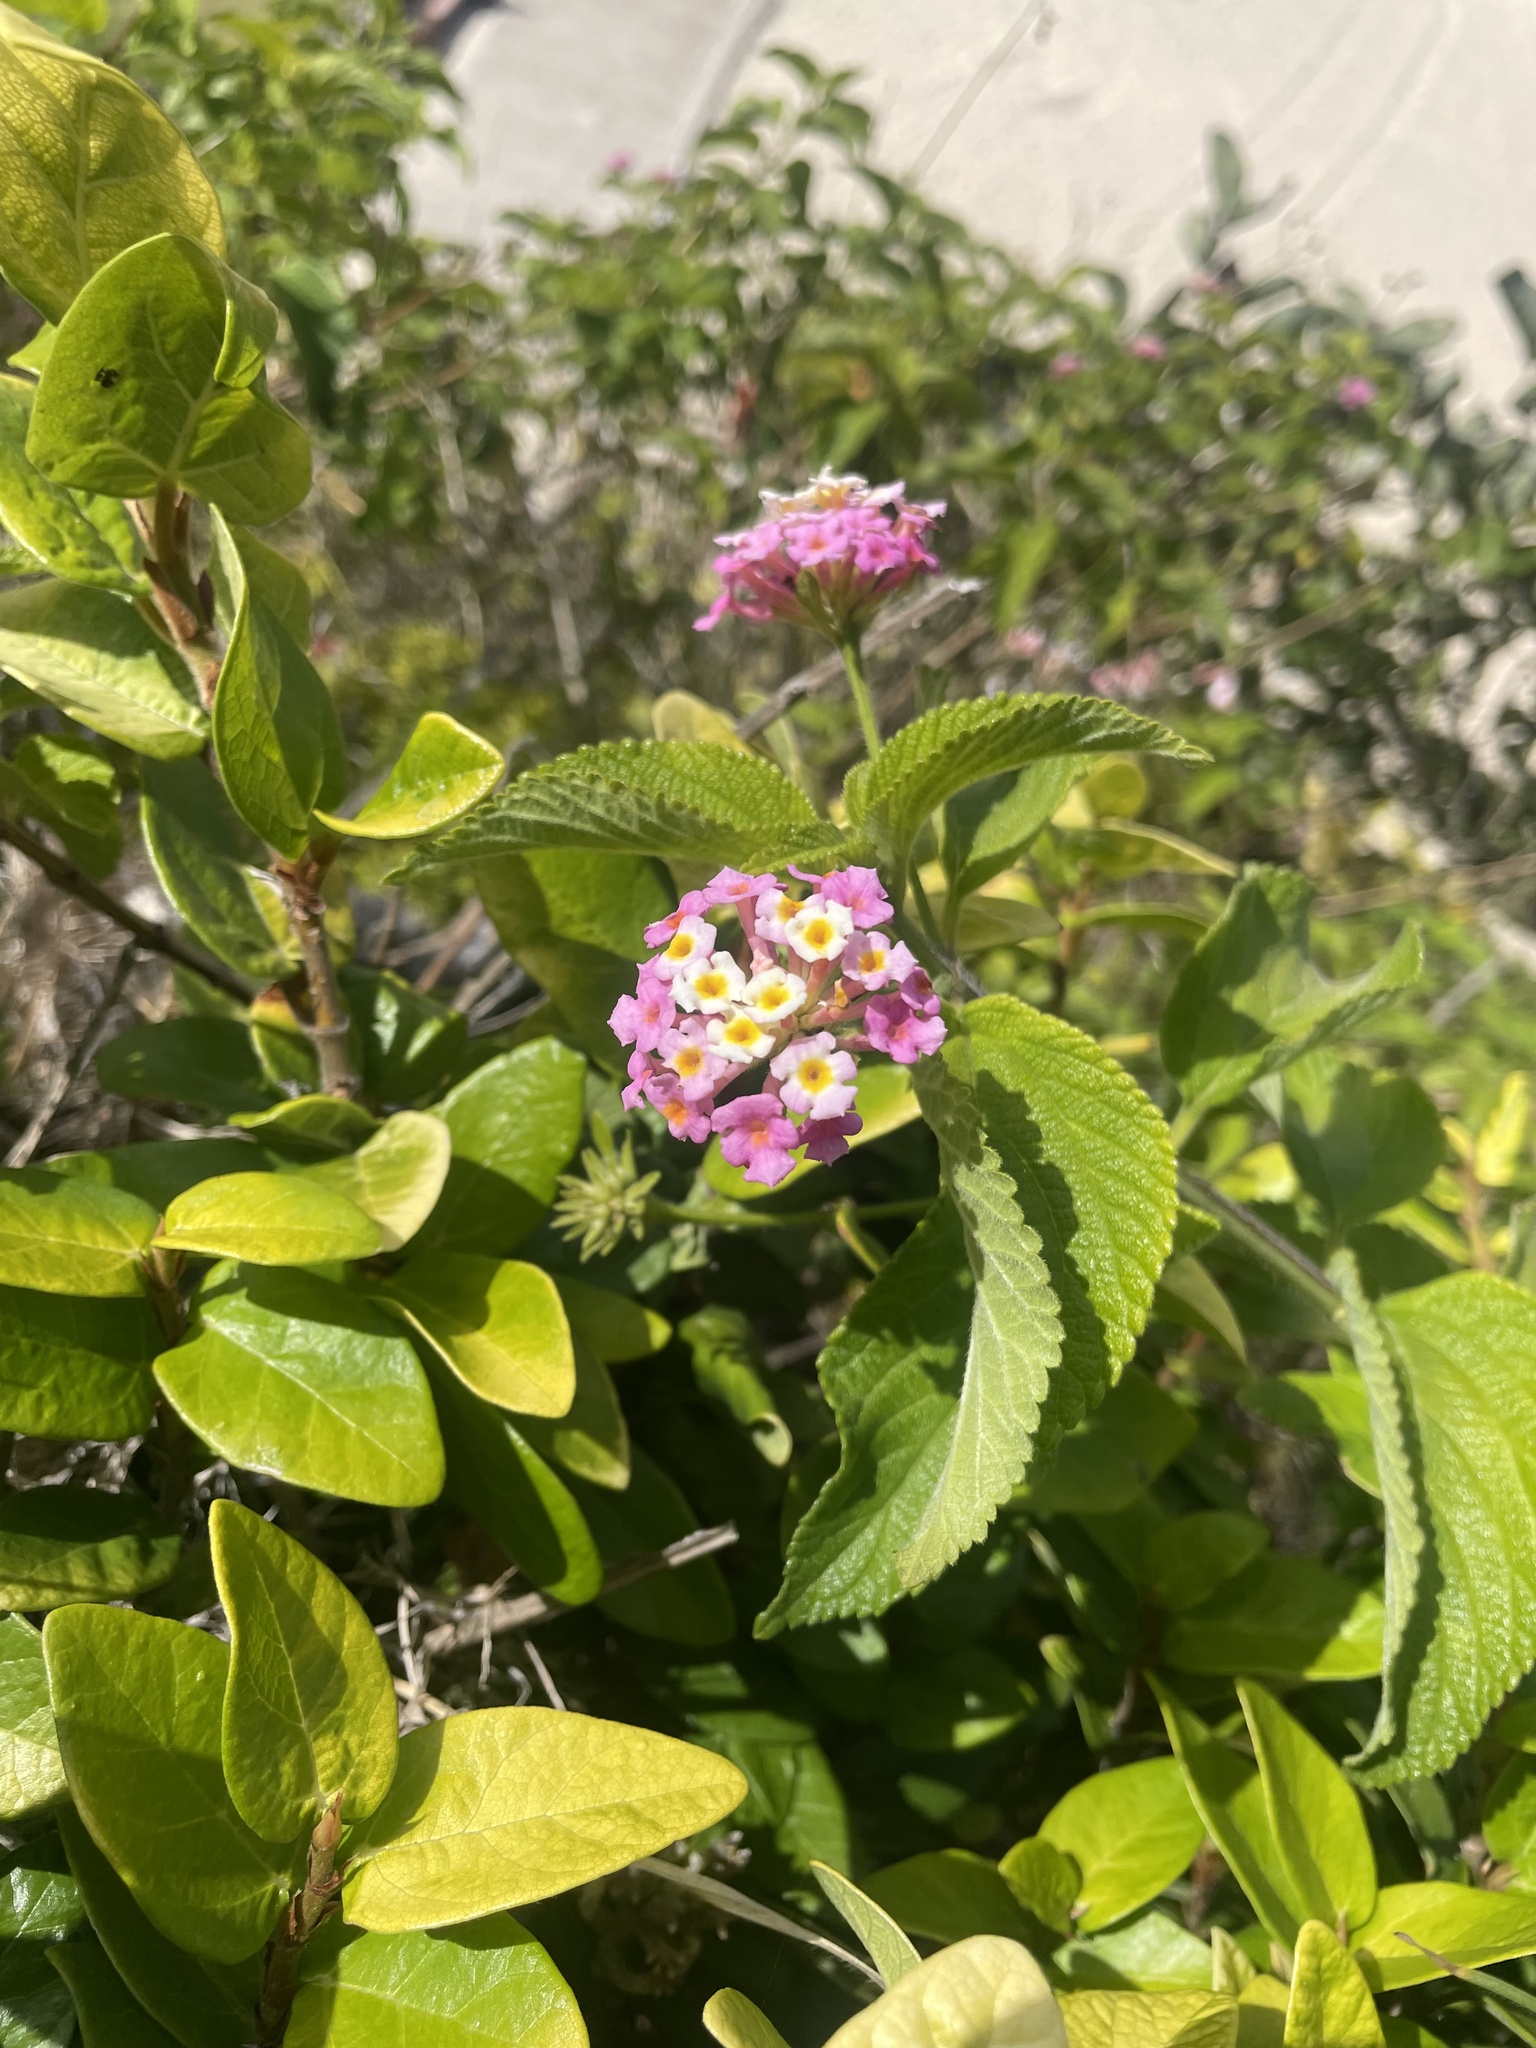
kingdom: Plantae
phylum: Tracheophyta
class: Magnoliopsida
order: Lamiales
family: Verbenaceae
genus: Lantana
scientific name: Lantana camara
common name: Lantana
